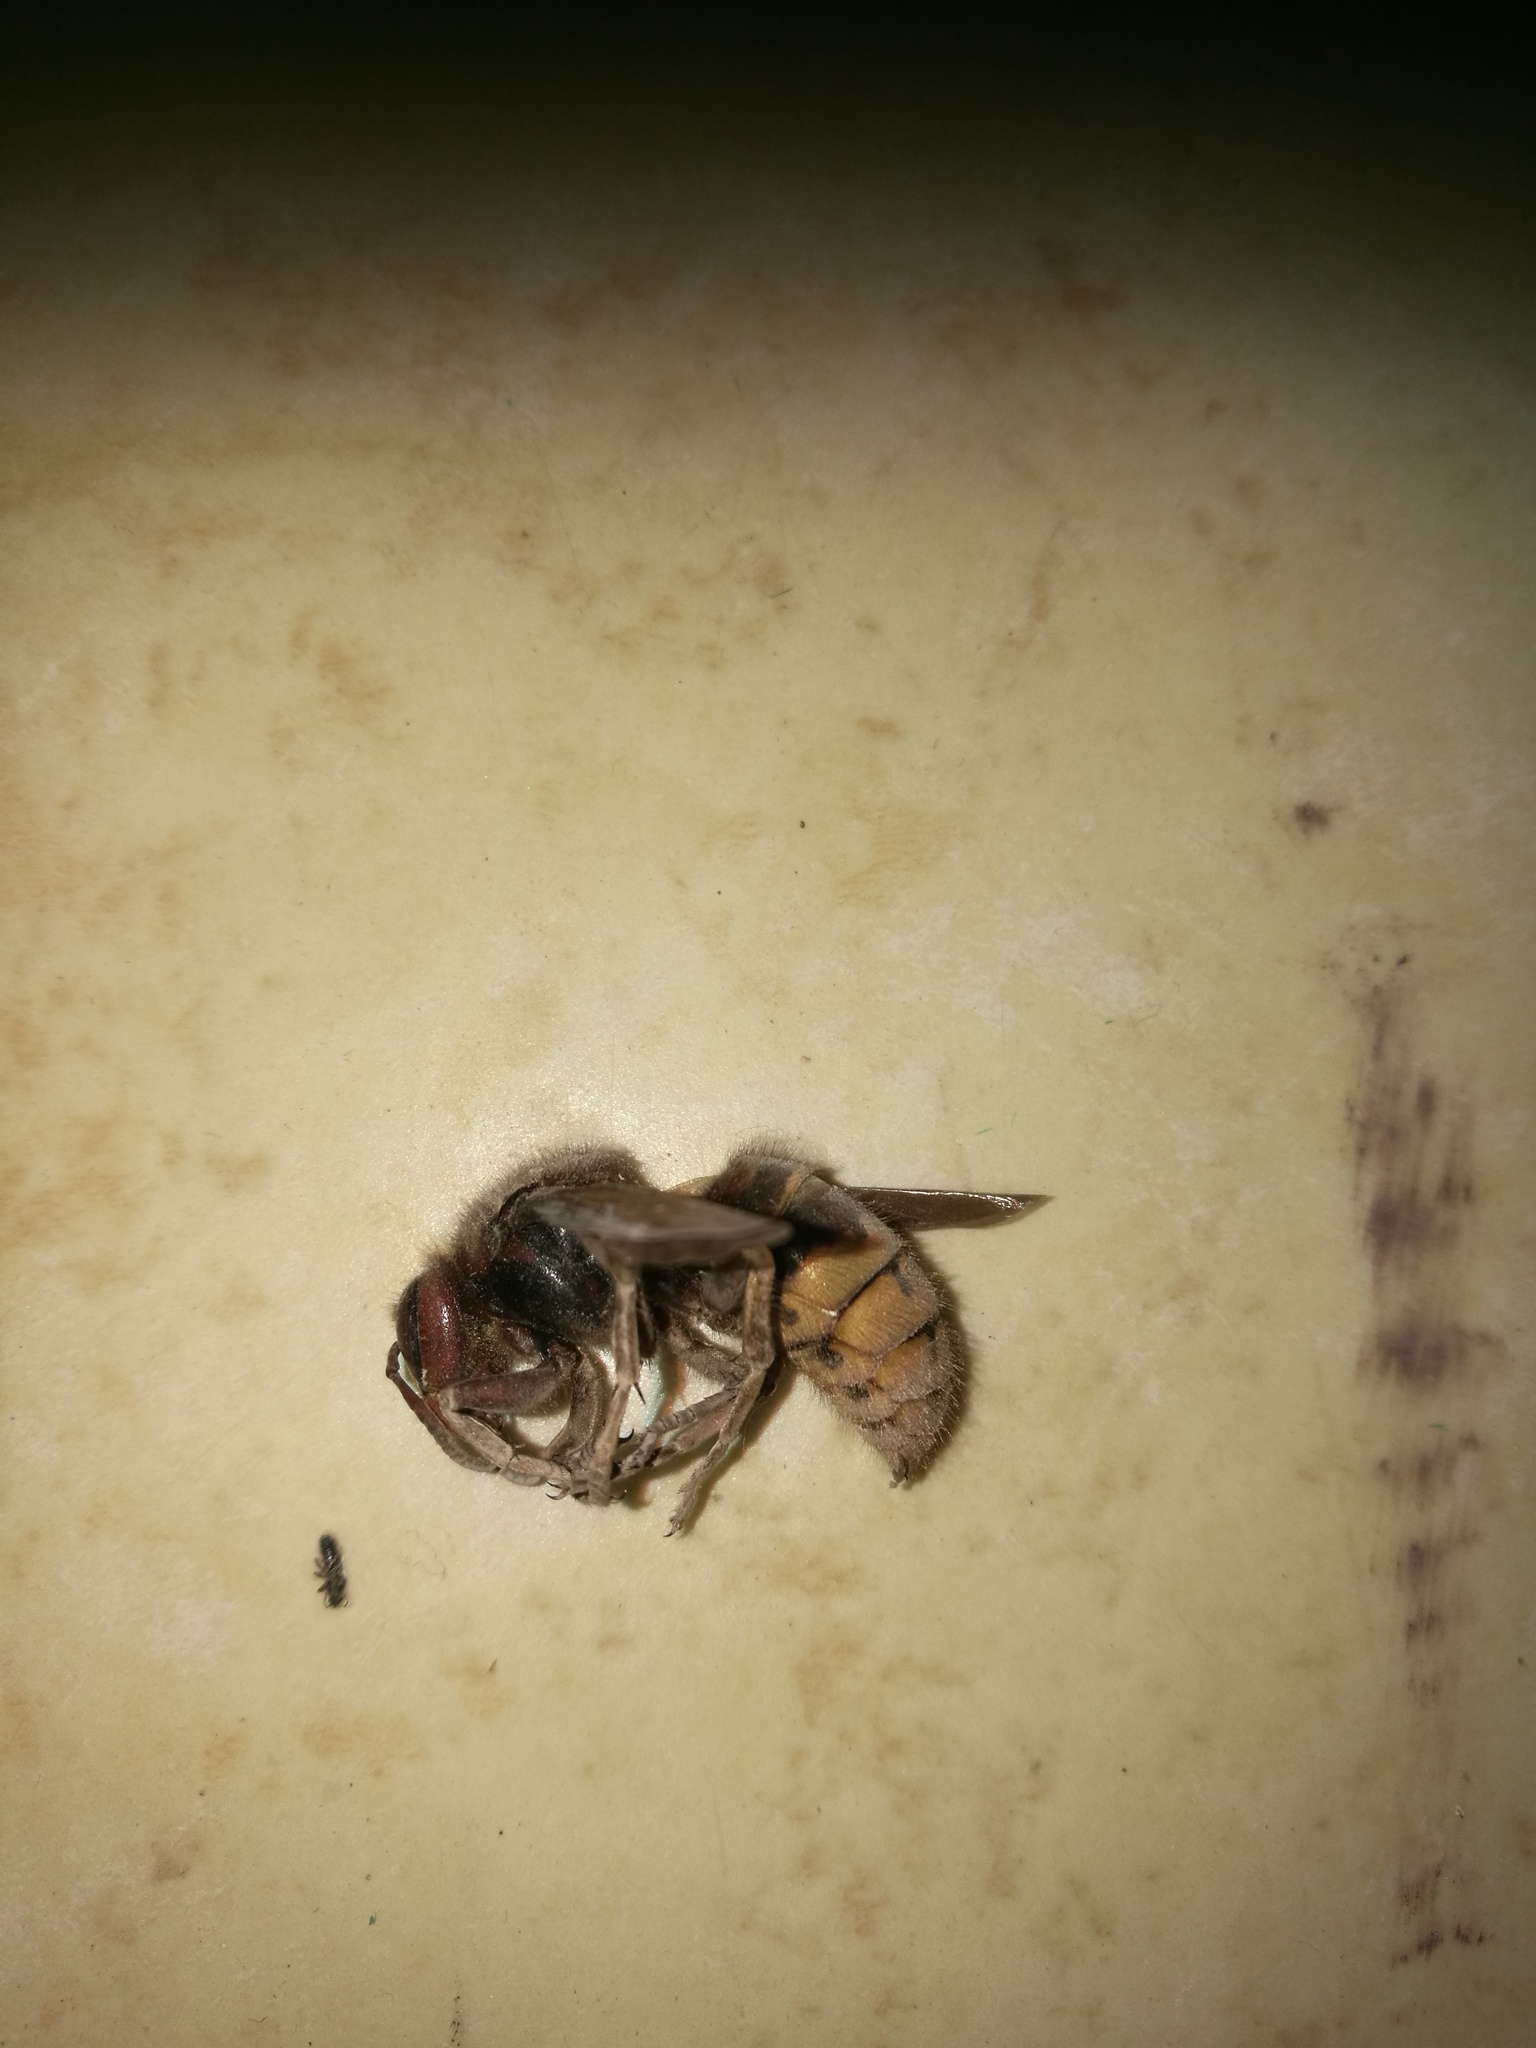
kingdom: Animalia
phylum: Arthropoda
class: Insecta
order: Hymenoptera
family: Vespidae
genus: Vespa
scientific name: Vespa crabro
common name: Hornet
